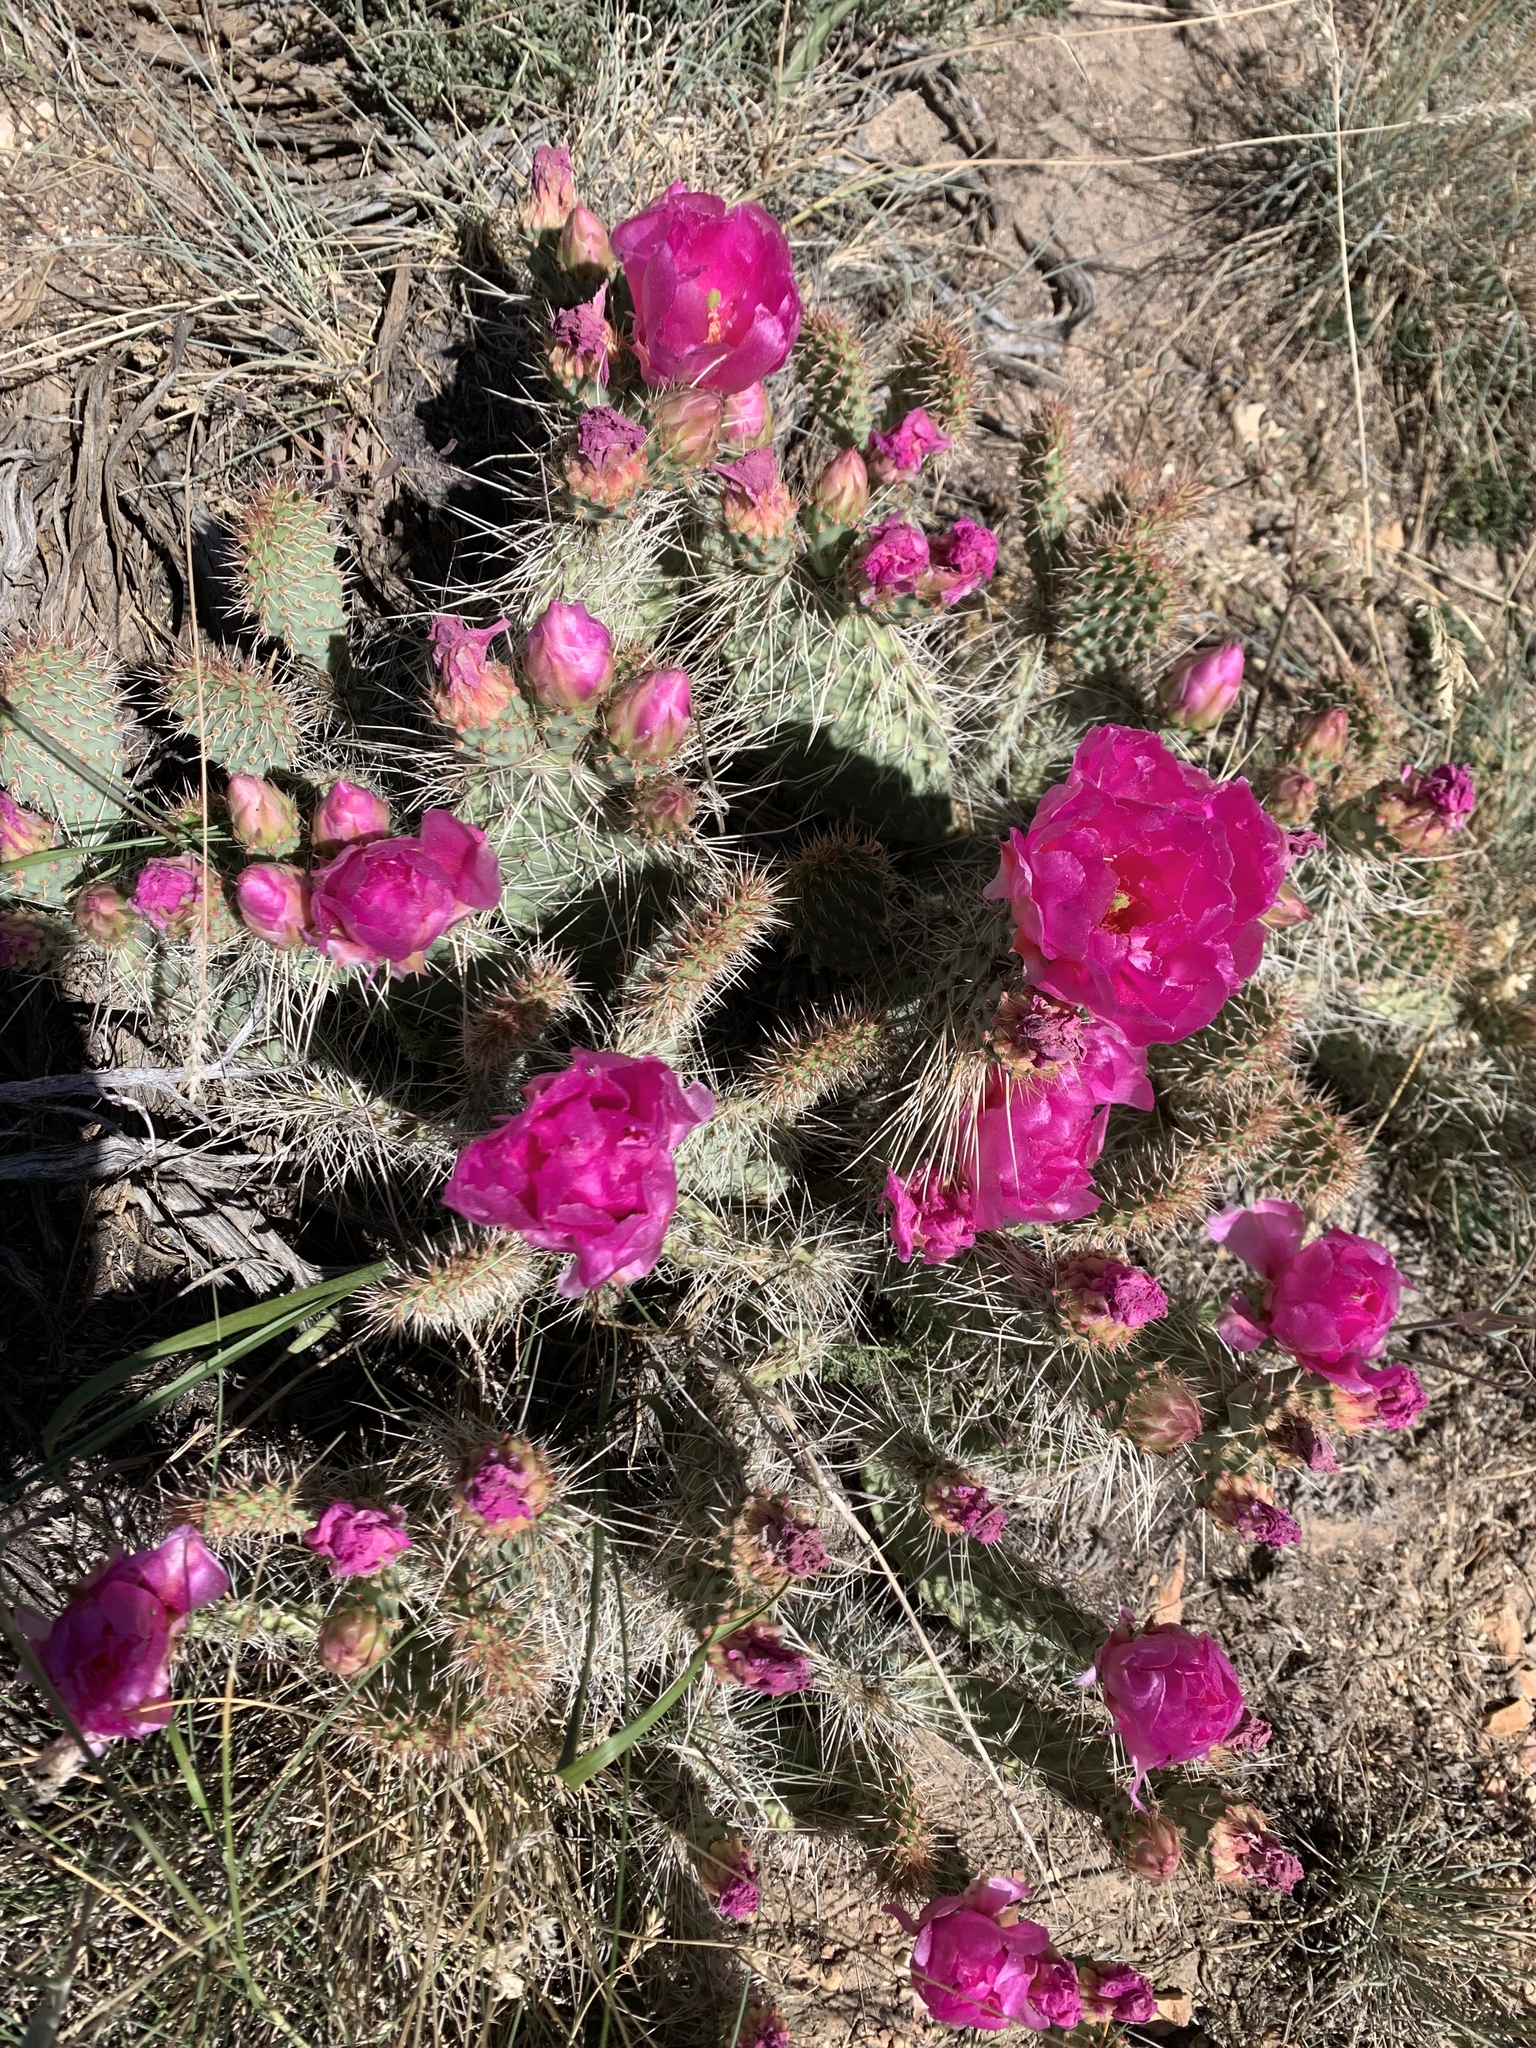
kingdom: Plantae
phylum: Tracheophyta
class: Magnoliopsida
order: Caryophyllales
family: Cactaceae
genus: Opuntia
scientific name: Opuntia polyacantha
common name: Plains prickly-pear
